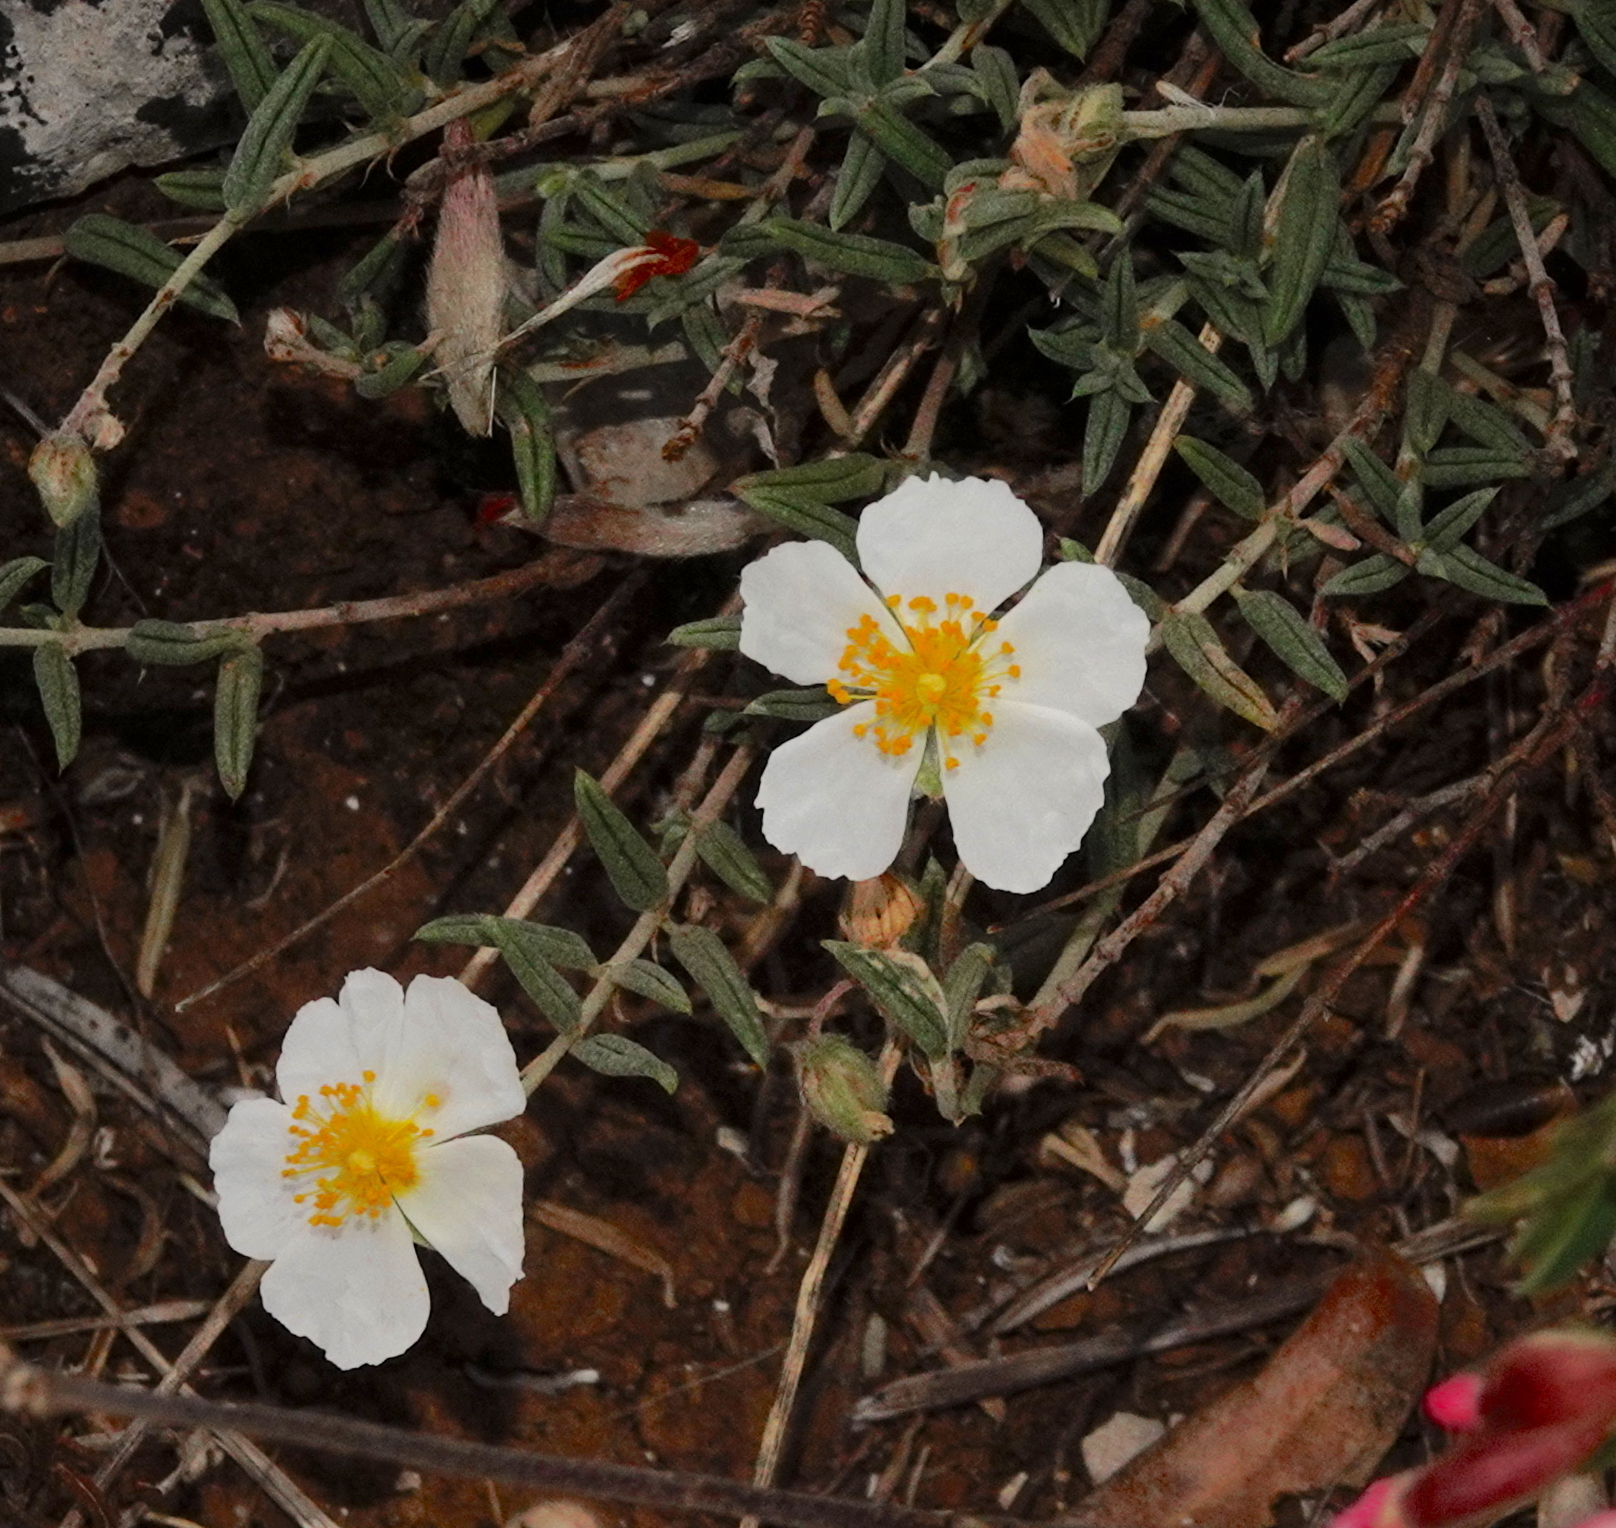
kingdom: Plantae
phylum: Tracheophyta
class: Magnoliopsida
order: Malvales
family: Cistaceae
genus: Helianthemum
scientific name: Helianthemum apenninum
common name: White rock-rose
